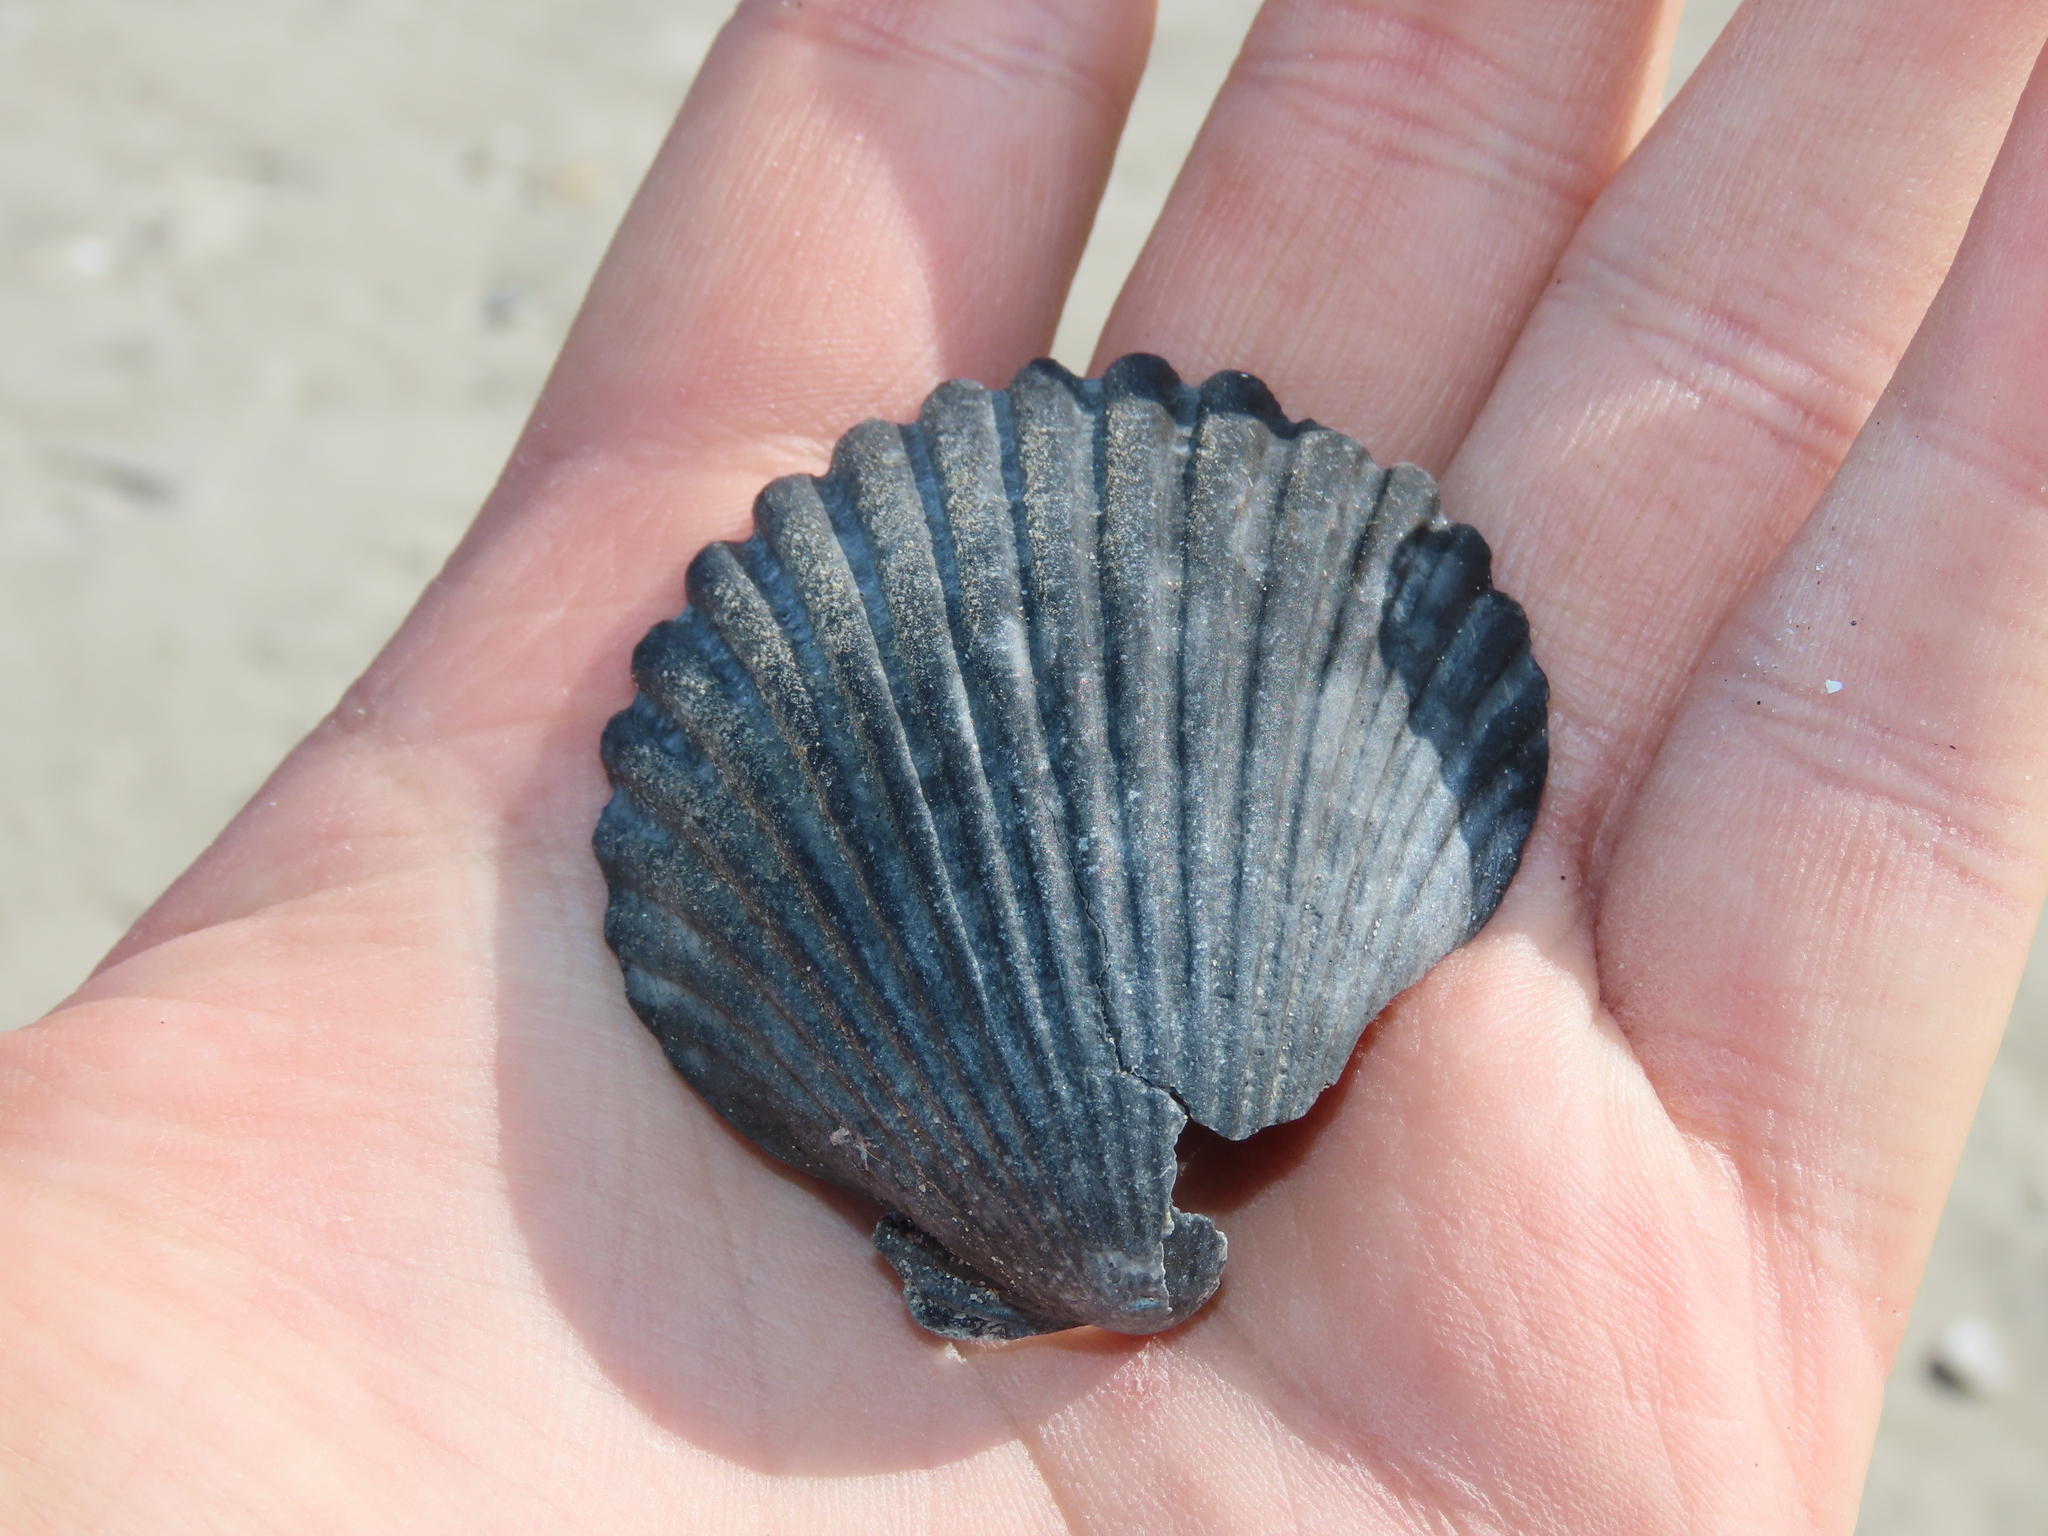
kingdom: Animalia
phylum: Mollusca
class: Bivalvia
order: Pectinida
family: Pectinidae
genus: Argopecten
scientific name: Argopecten irradians
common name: Atlantic bay scallop
